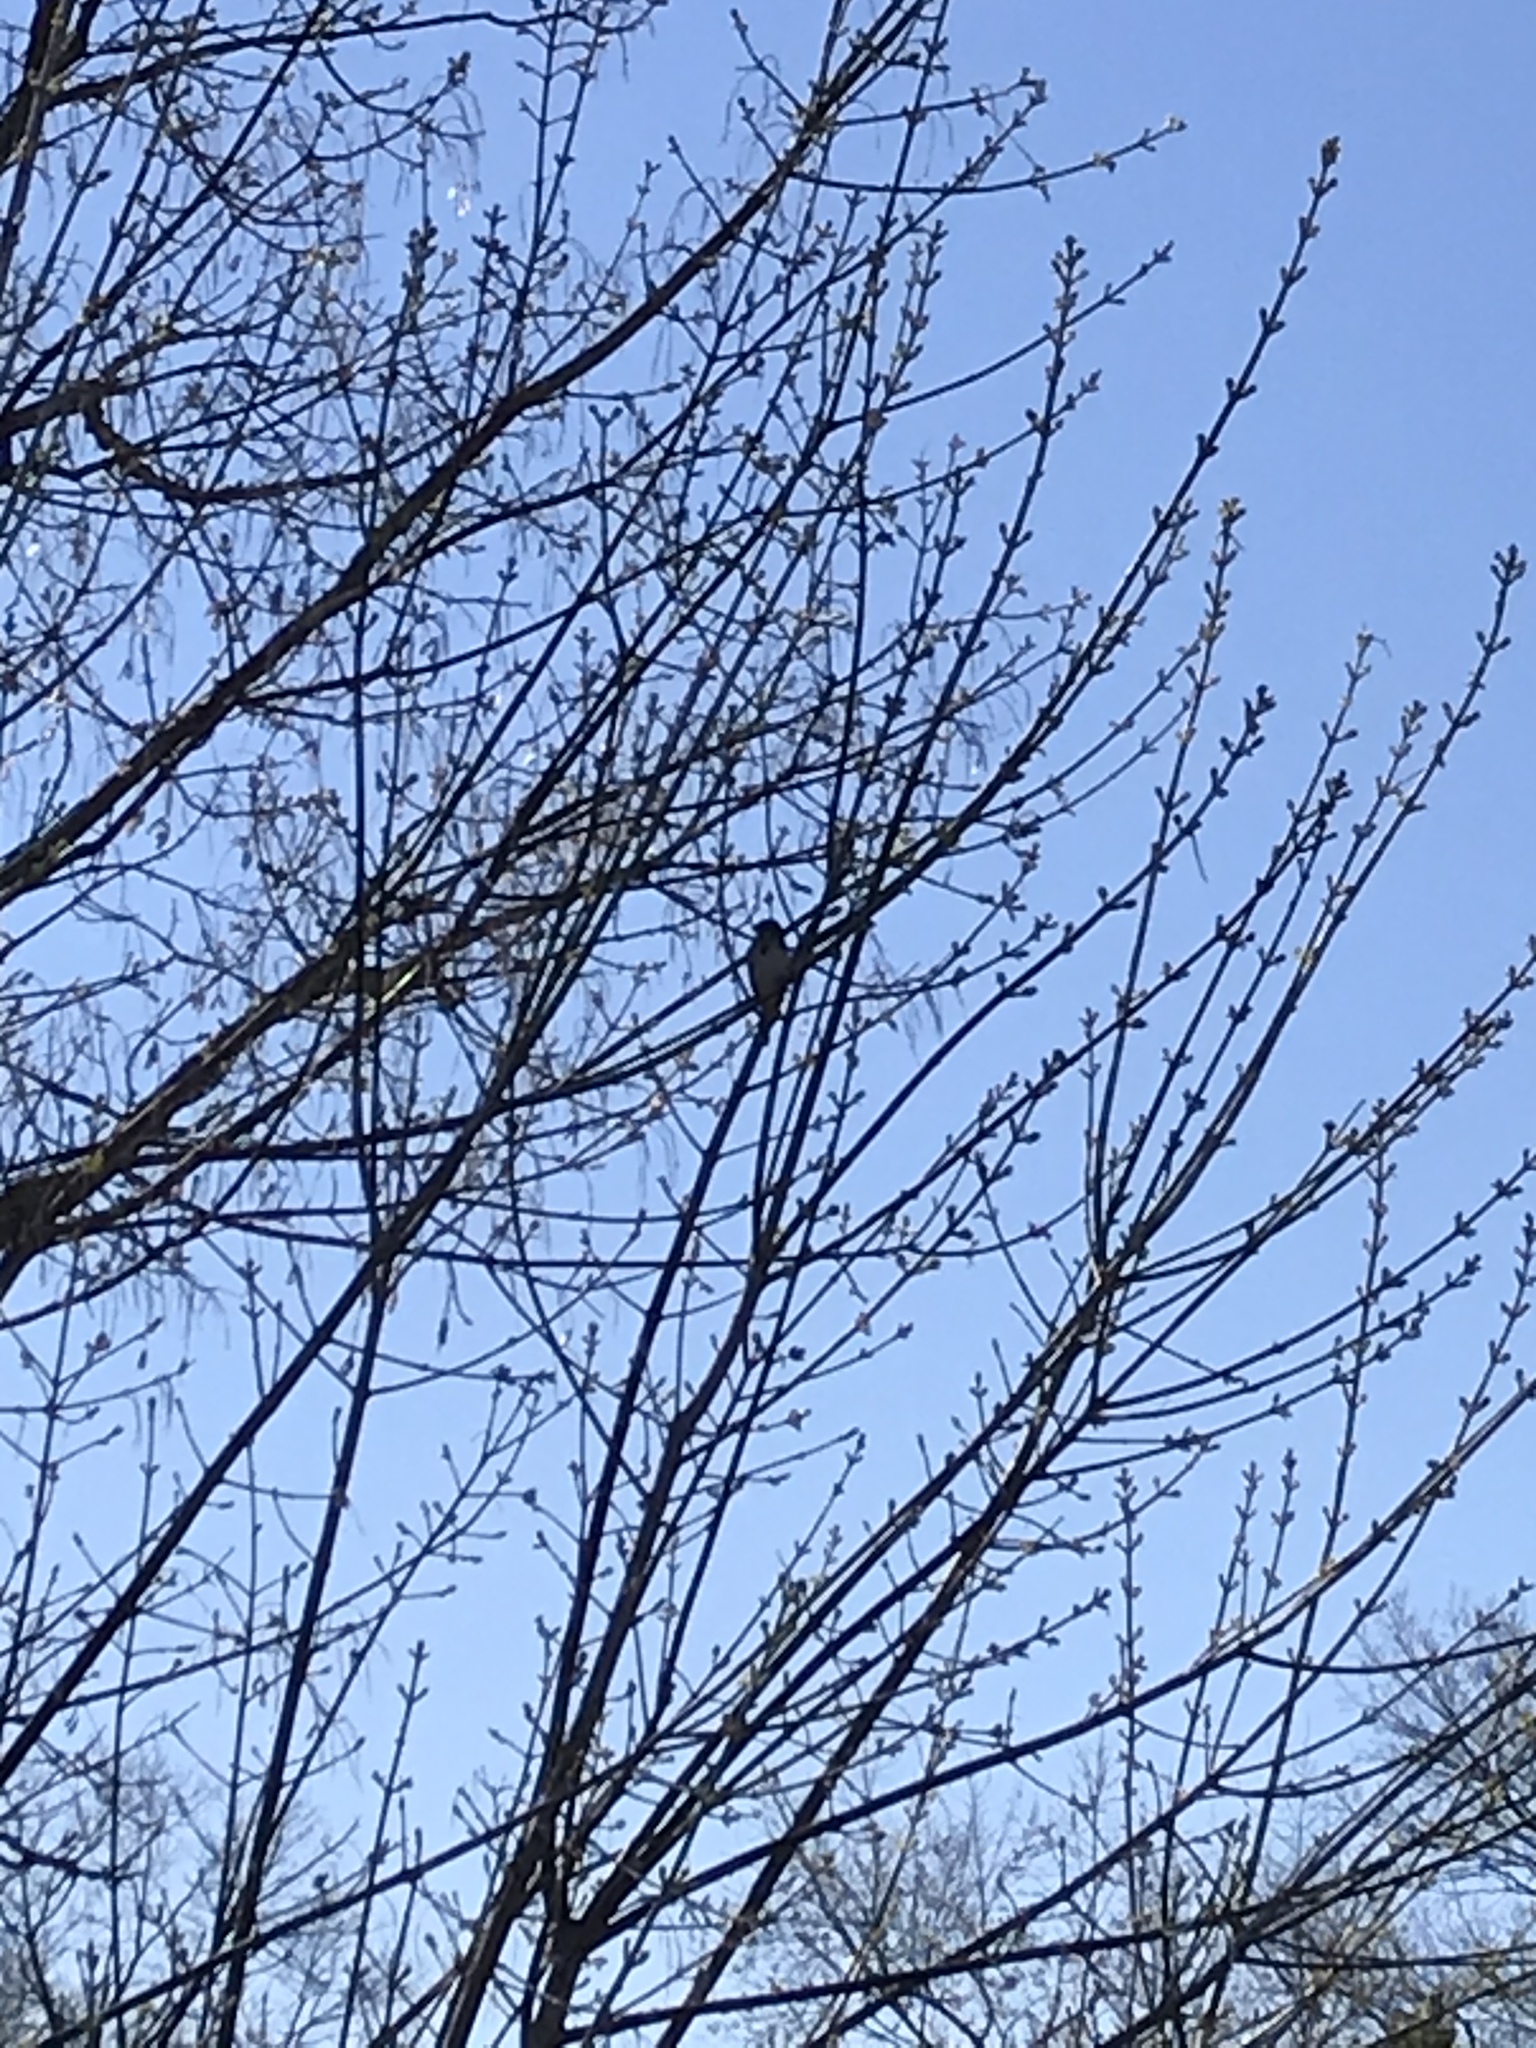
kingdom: Animalia
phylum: Chordata
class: Aves
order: Passeriformes
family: Passerellidae
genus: Melospiza
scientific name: Melospiza melodia
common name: Song sparrow
